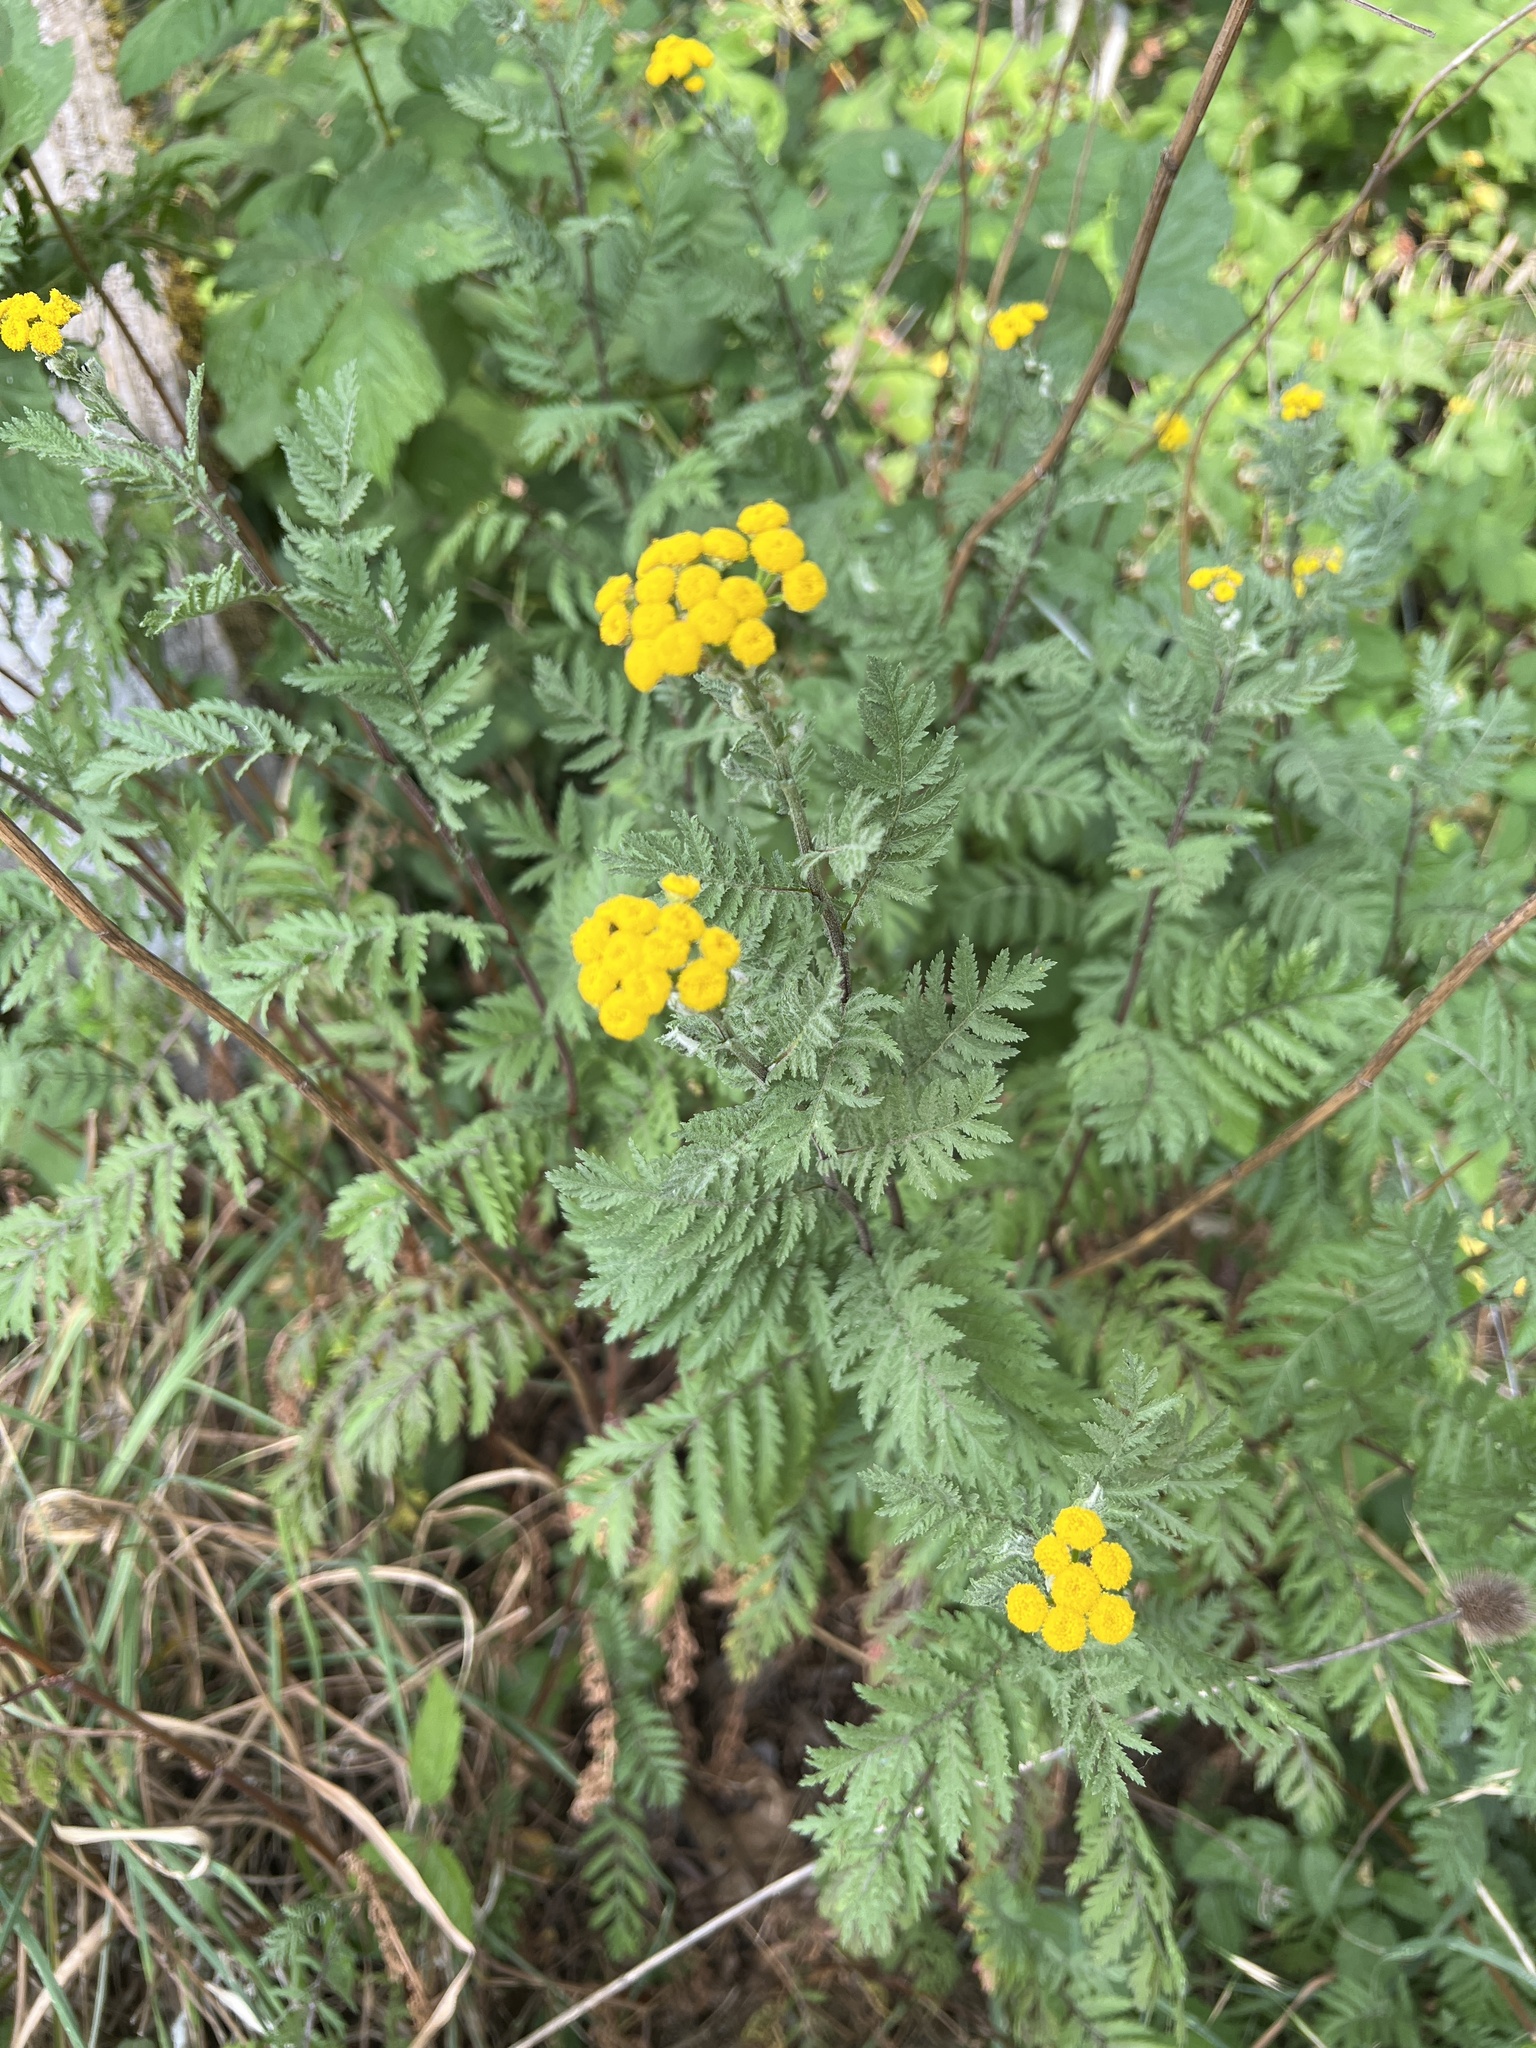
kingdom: Plantae
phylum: Tracheophyta
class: Magnoliopsida
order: Asterales
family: Asteraceae
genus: Tanacetum
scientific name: Tanacetum vulgare
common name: Common tansy
